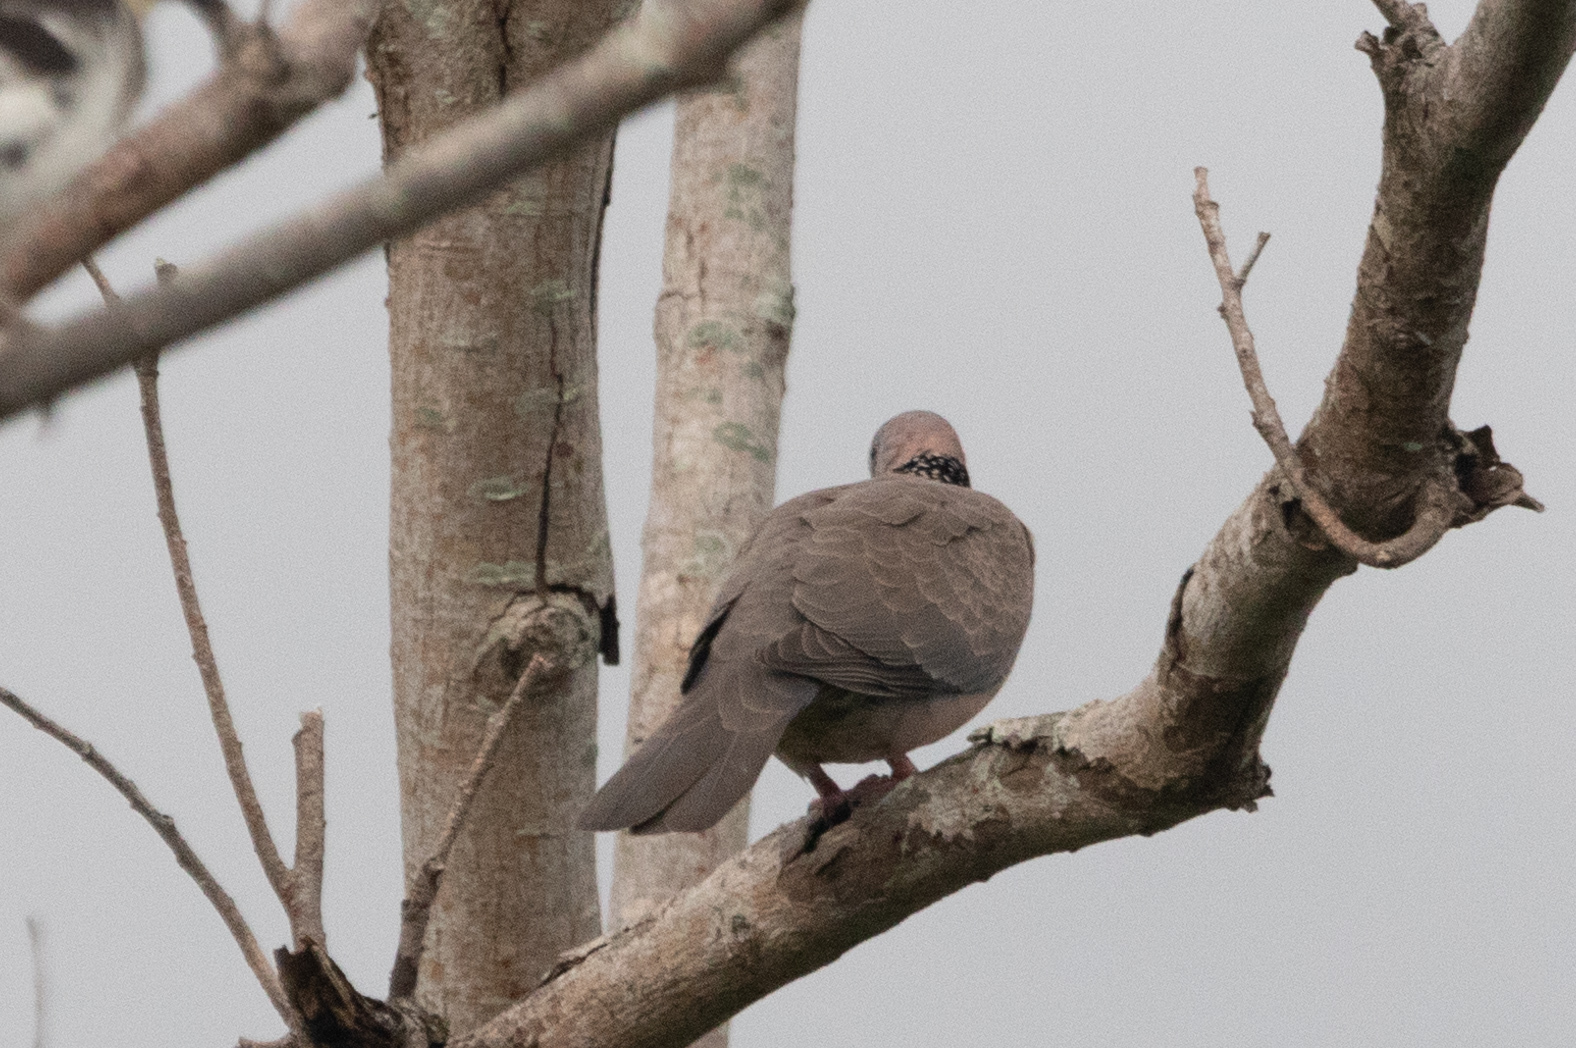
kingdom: Animalia
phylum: Chordata
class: Aves
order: Columbiformes
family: Columbidae
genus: Spilopelia
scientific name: Spilopelia chinensis
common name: Spotted dove
